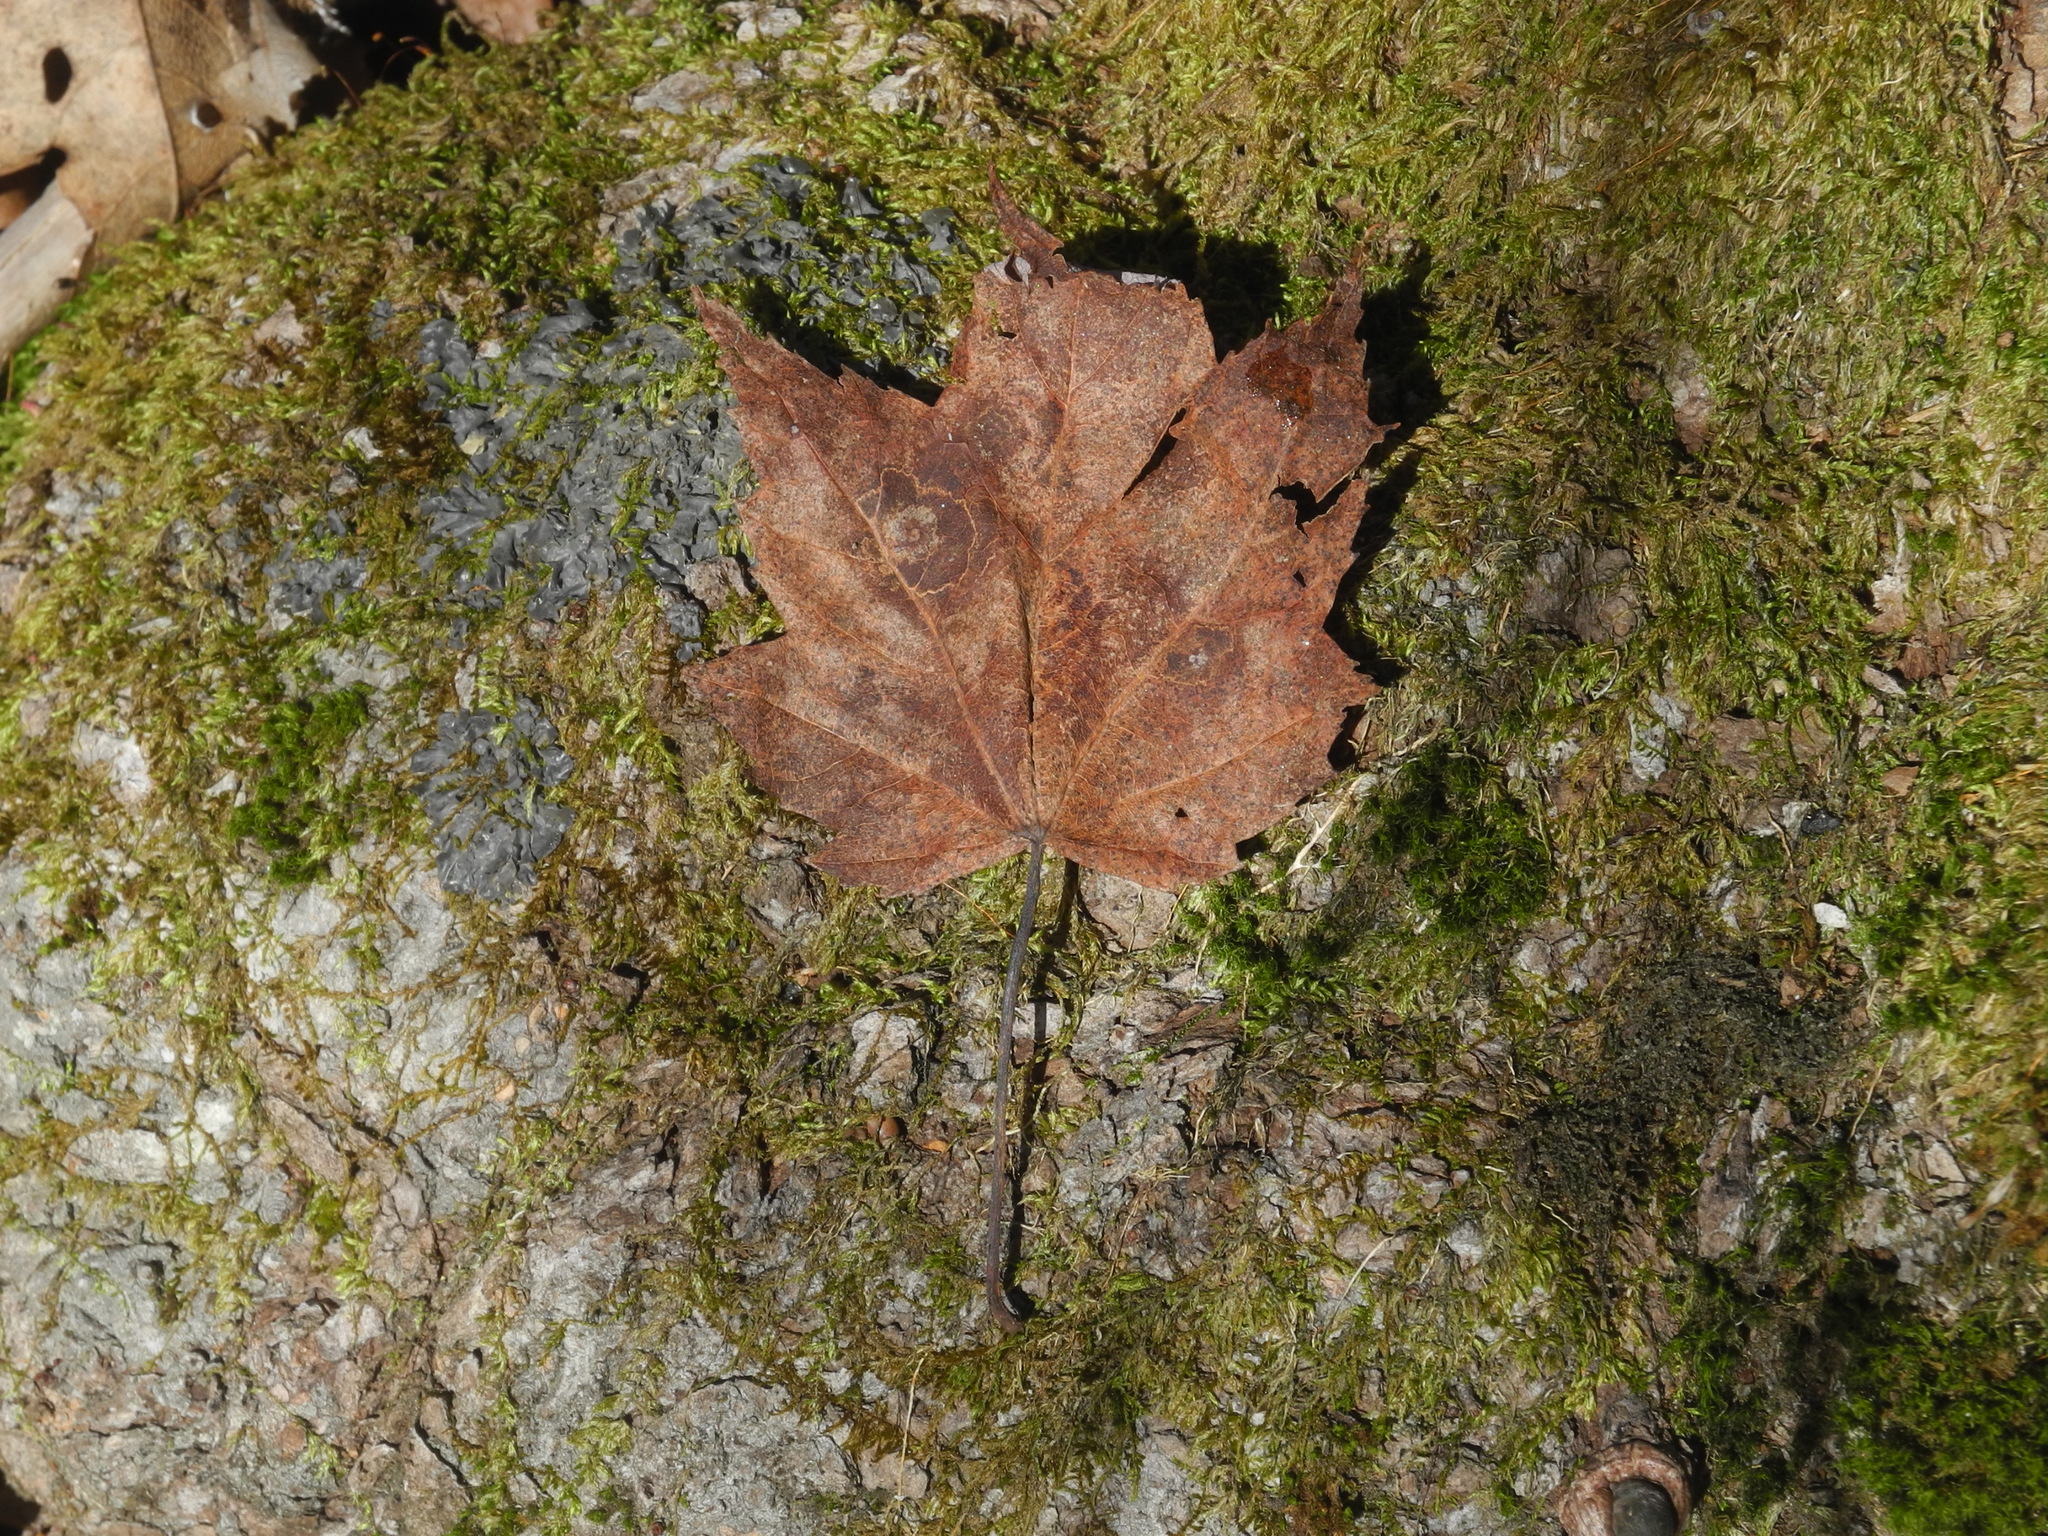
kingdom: Plantae
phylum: Tracheophyta
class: Magnoliopsida
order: Sapindales
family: Sapindaceae
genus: Acer
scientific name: Acer freemanii
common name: Freeman maple
